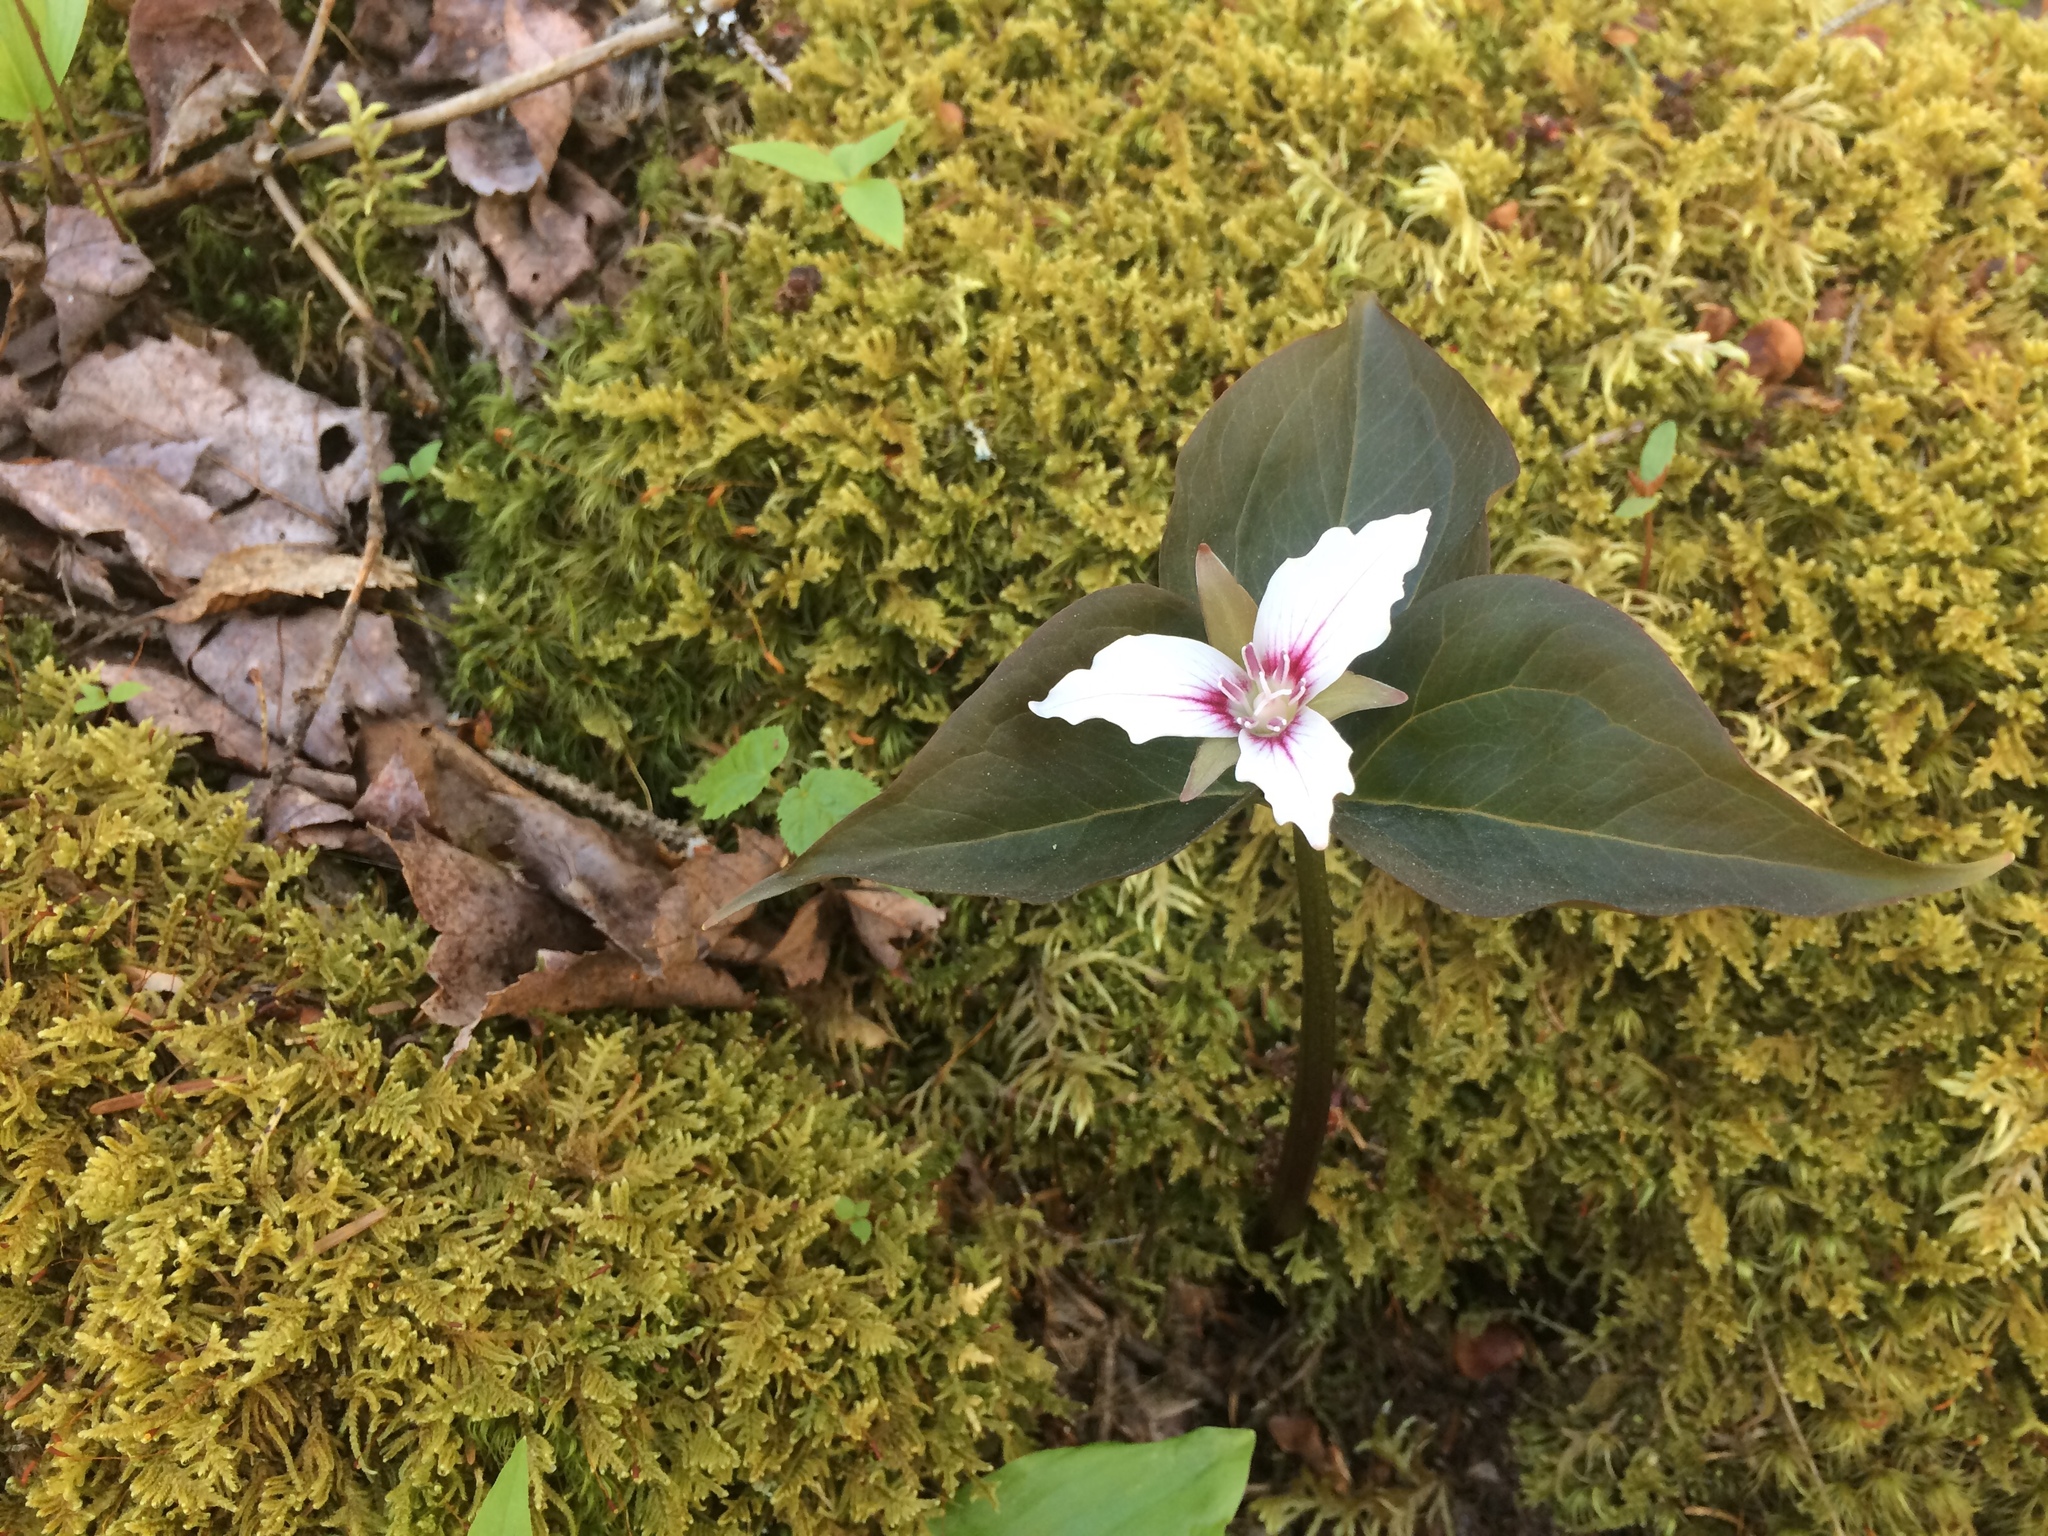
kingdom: Plantae
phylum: Tracheophyta
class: Liliopsida
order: Liliales
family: Melanthiaceae
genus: Trillium
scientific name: Trillium undulatum
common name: Paint trillium
